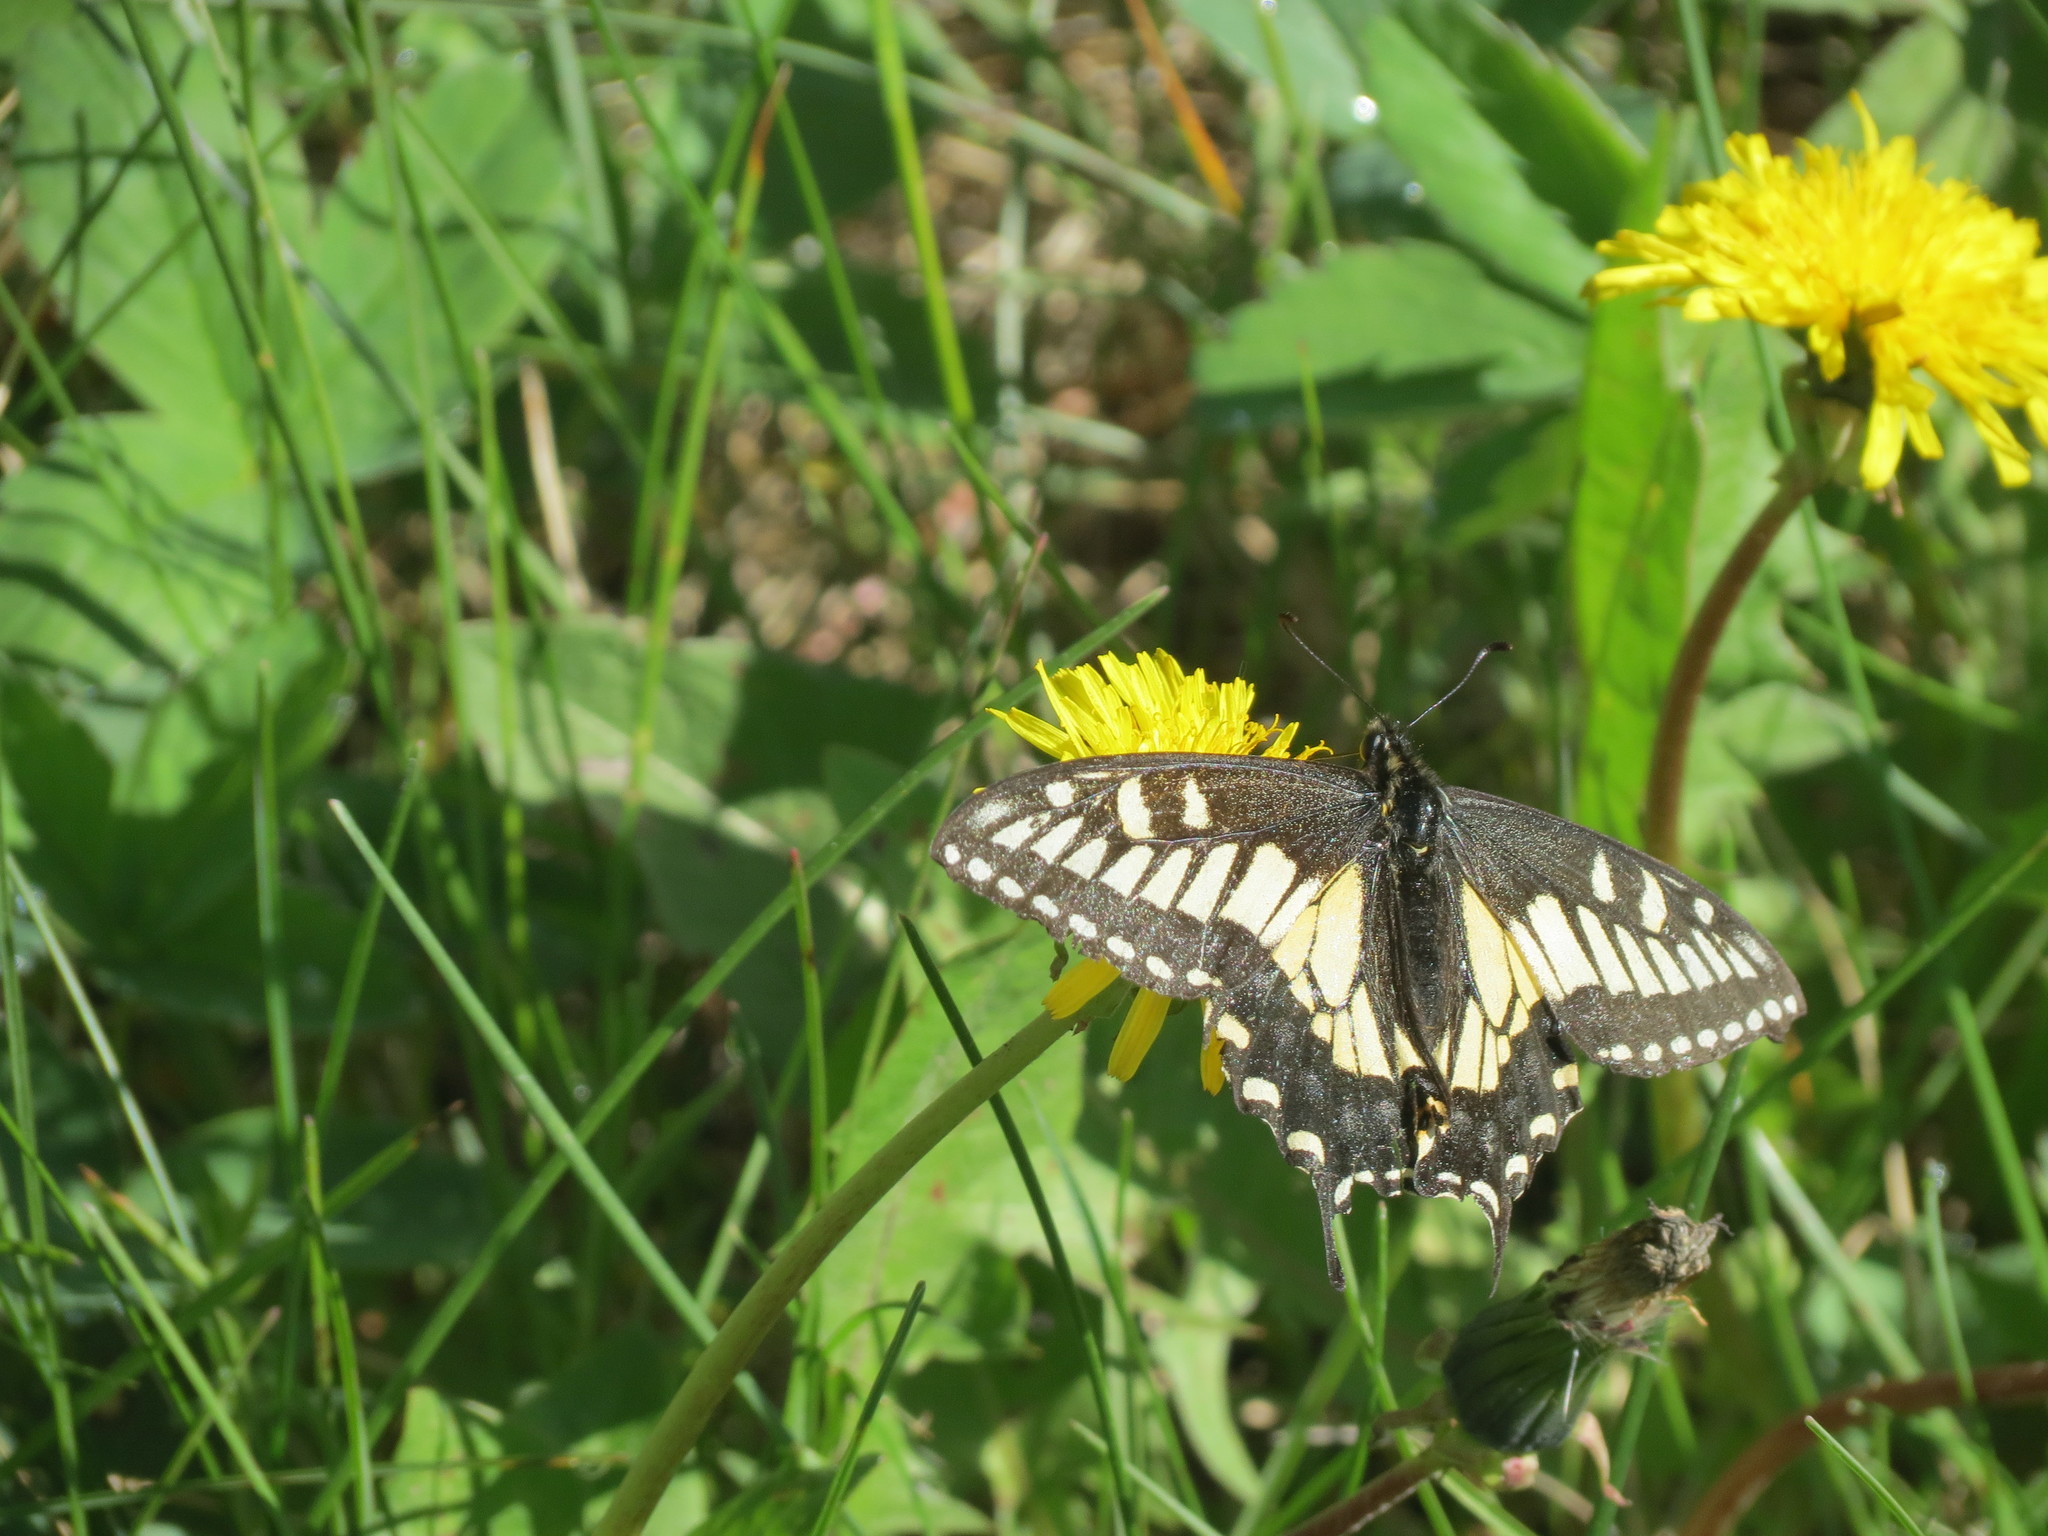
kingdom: Animalia
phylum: Arthropoda
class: Insecta
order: Lepidoptera
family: Papilionidae
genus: Papilio
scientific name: Papilio zelicaon
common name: Anise swallowtail
